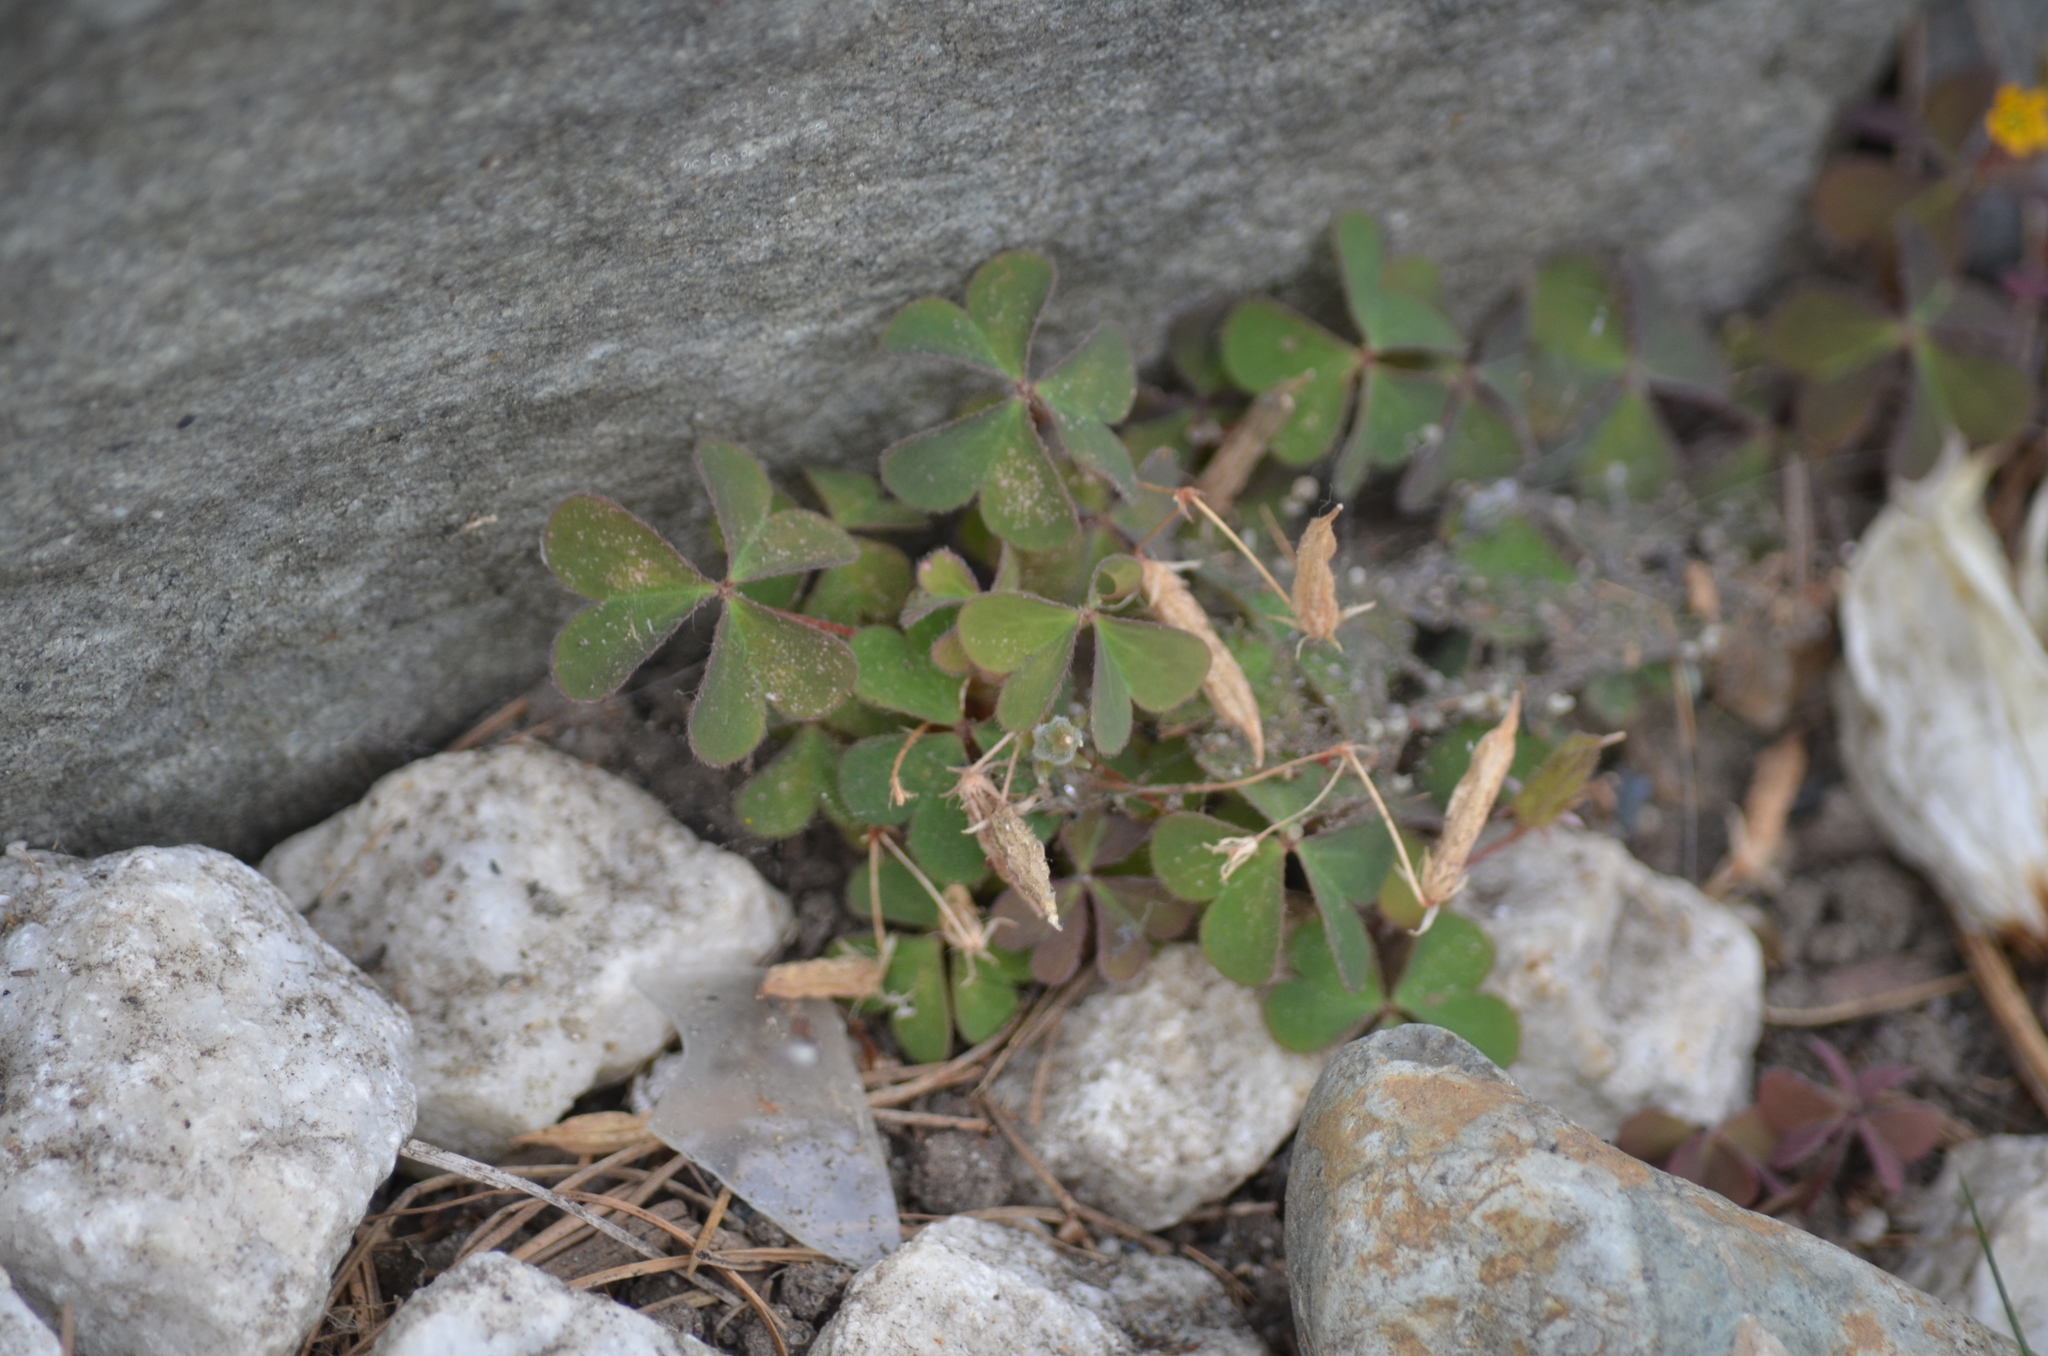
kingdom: Plantae
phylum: Tracheophyta
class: Magnoliopsida
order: Oxalidales
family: Oxalidaceae
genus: Oxalis
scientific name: Oxalis corniculata
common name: Procumbent yellow-sorrel
